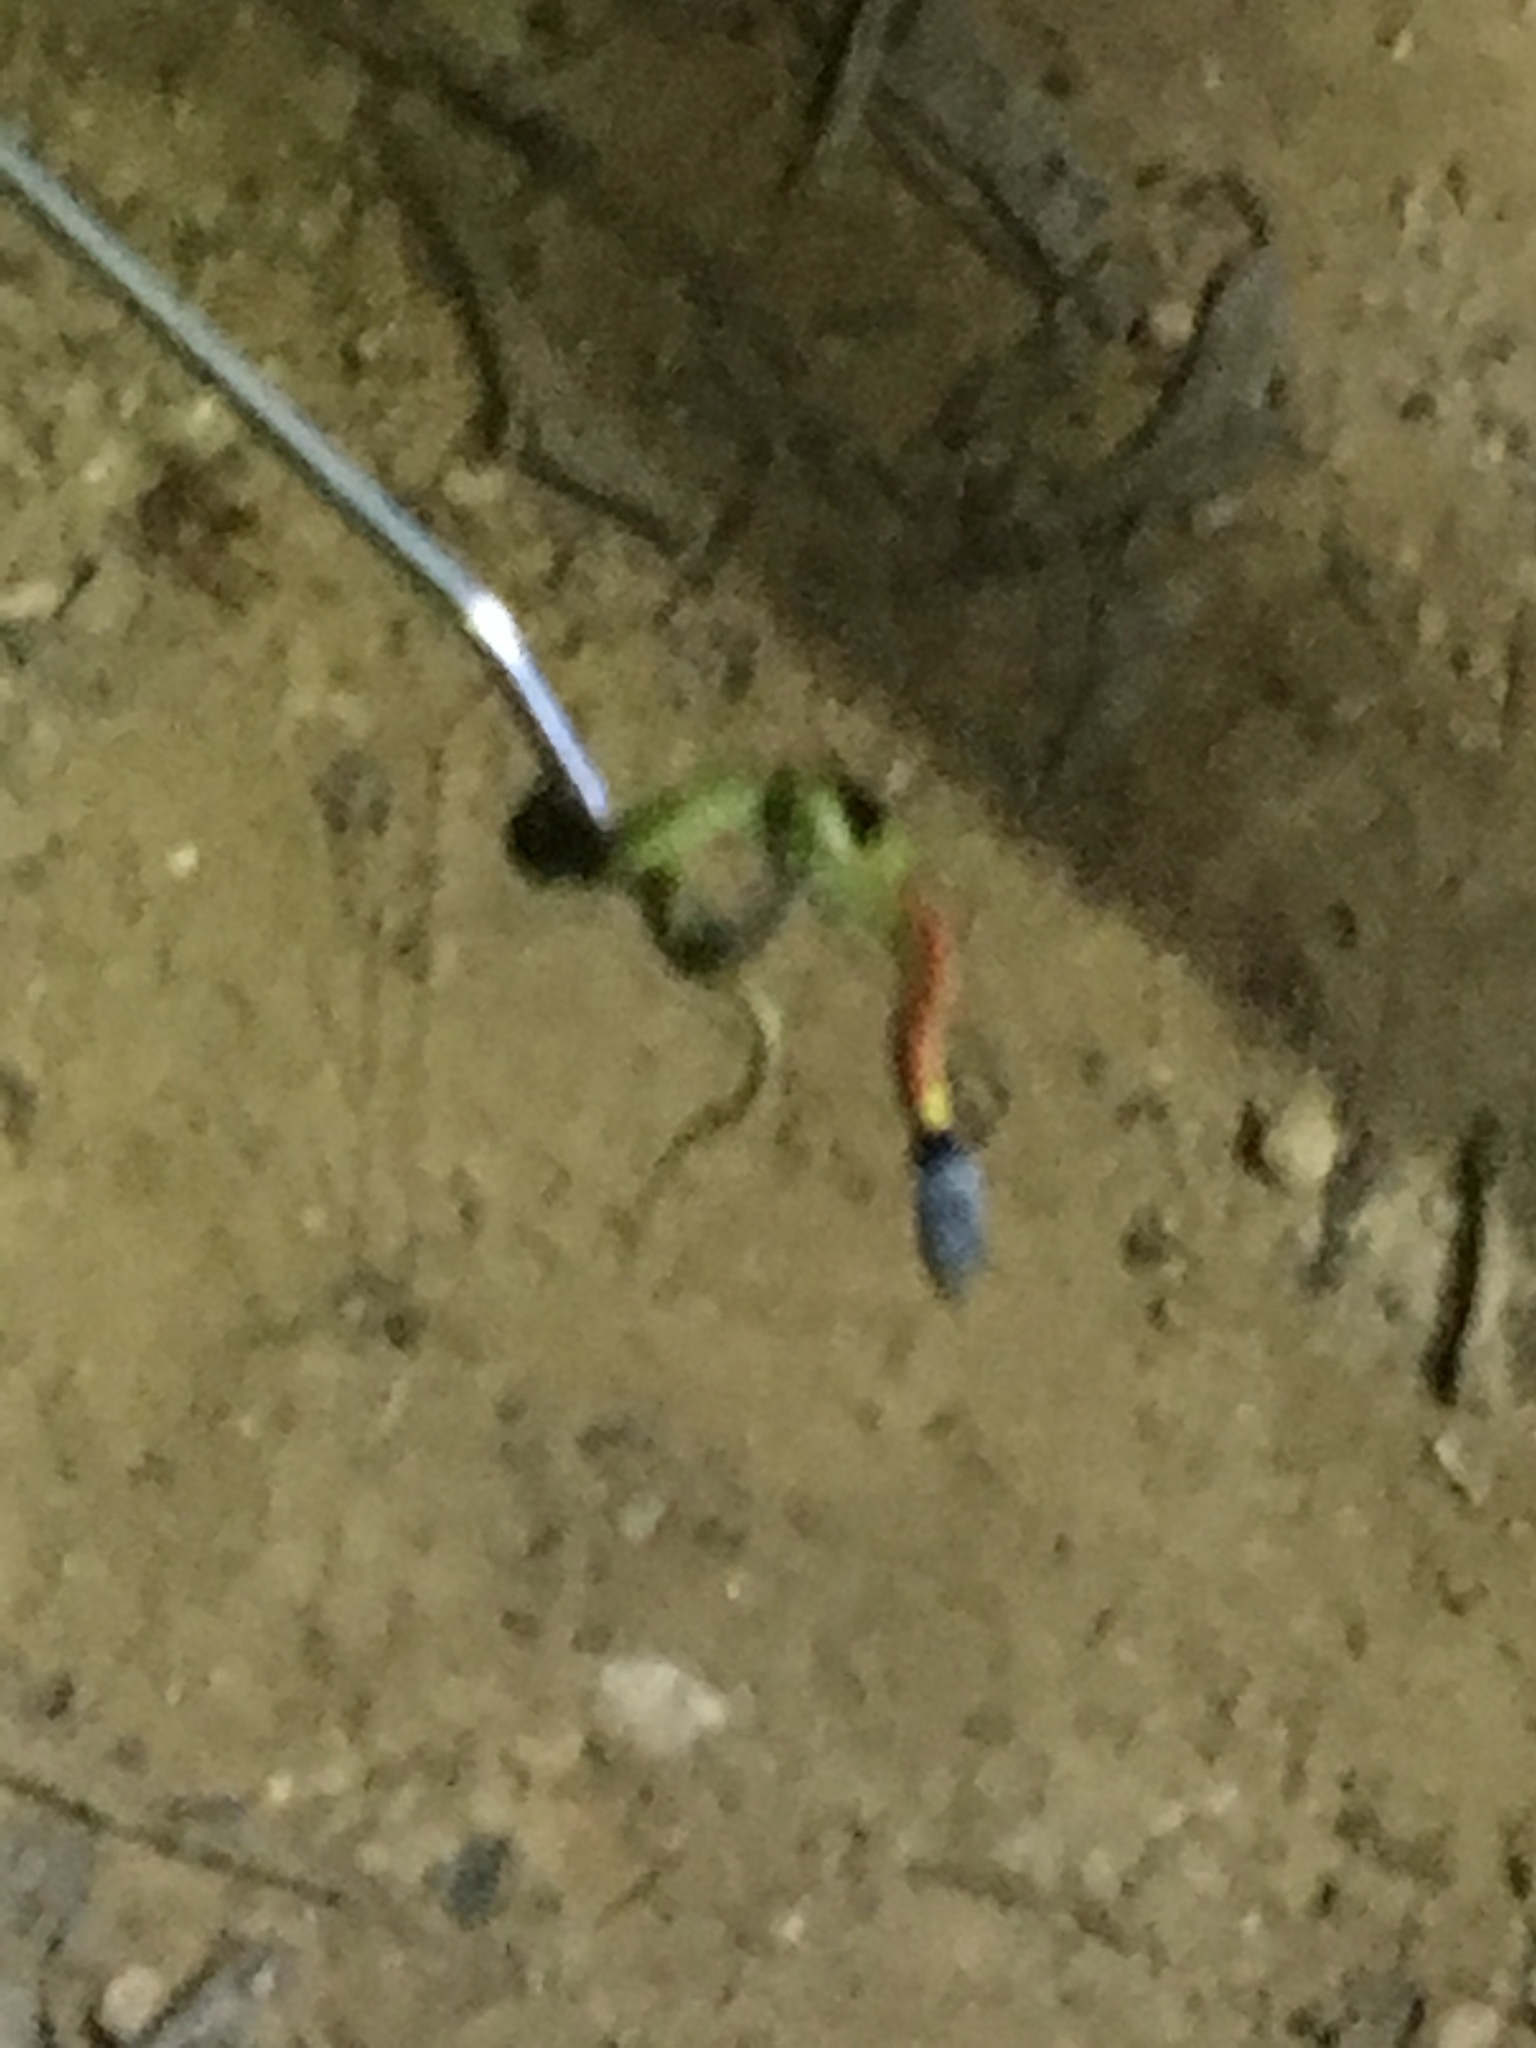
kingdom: Animalia
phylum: Chordata
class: Squamata
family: Colubridae
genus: Rhabdophis
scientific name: Rhabdophis helleri
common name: Heller’s red-necked keelback
